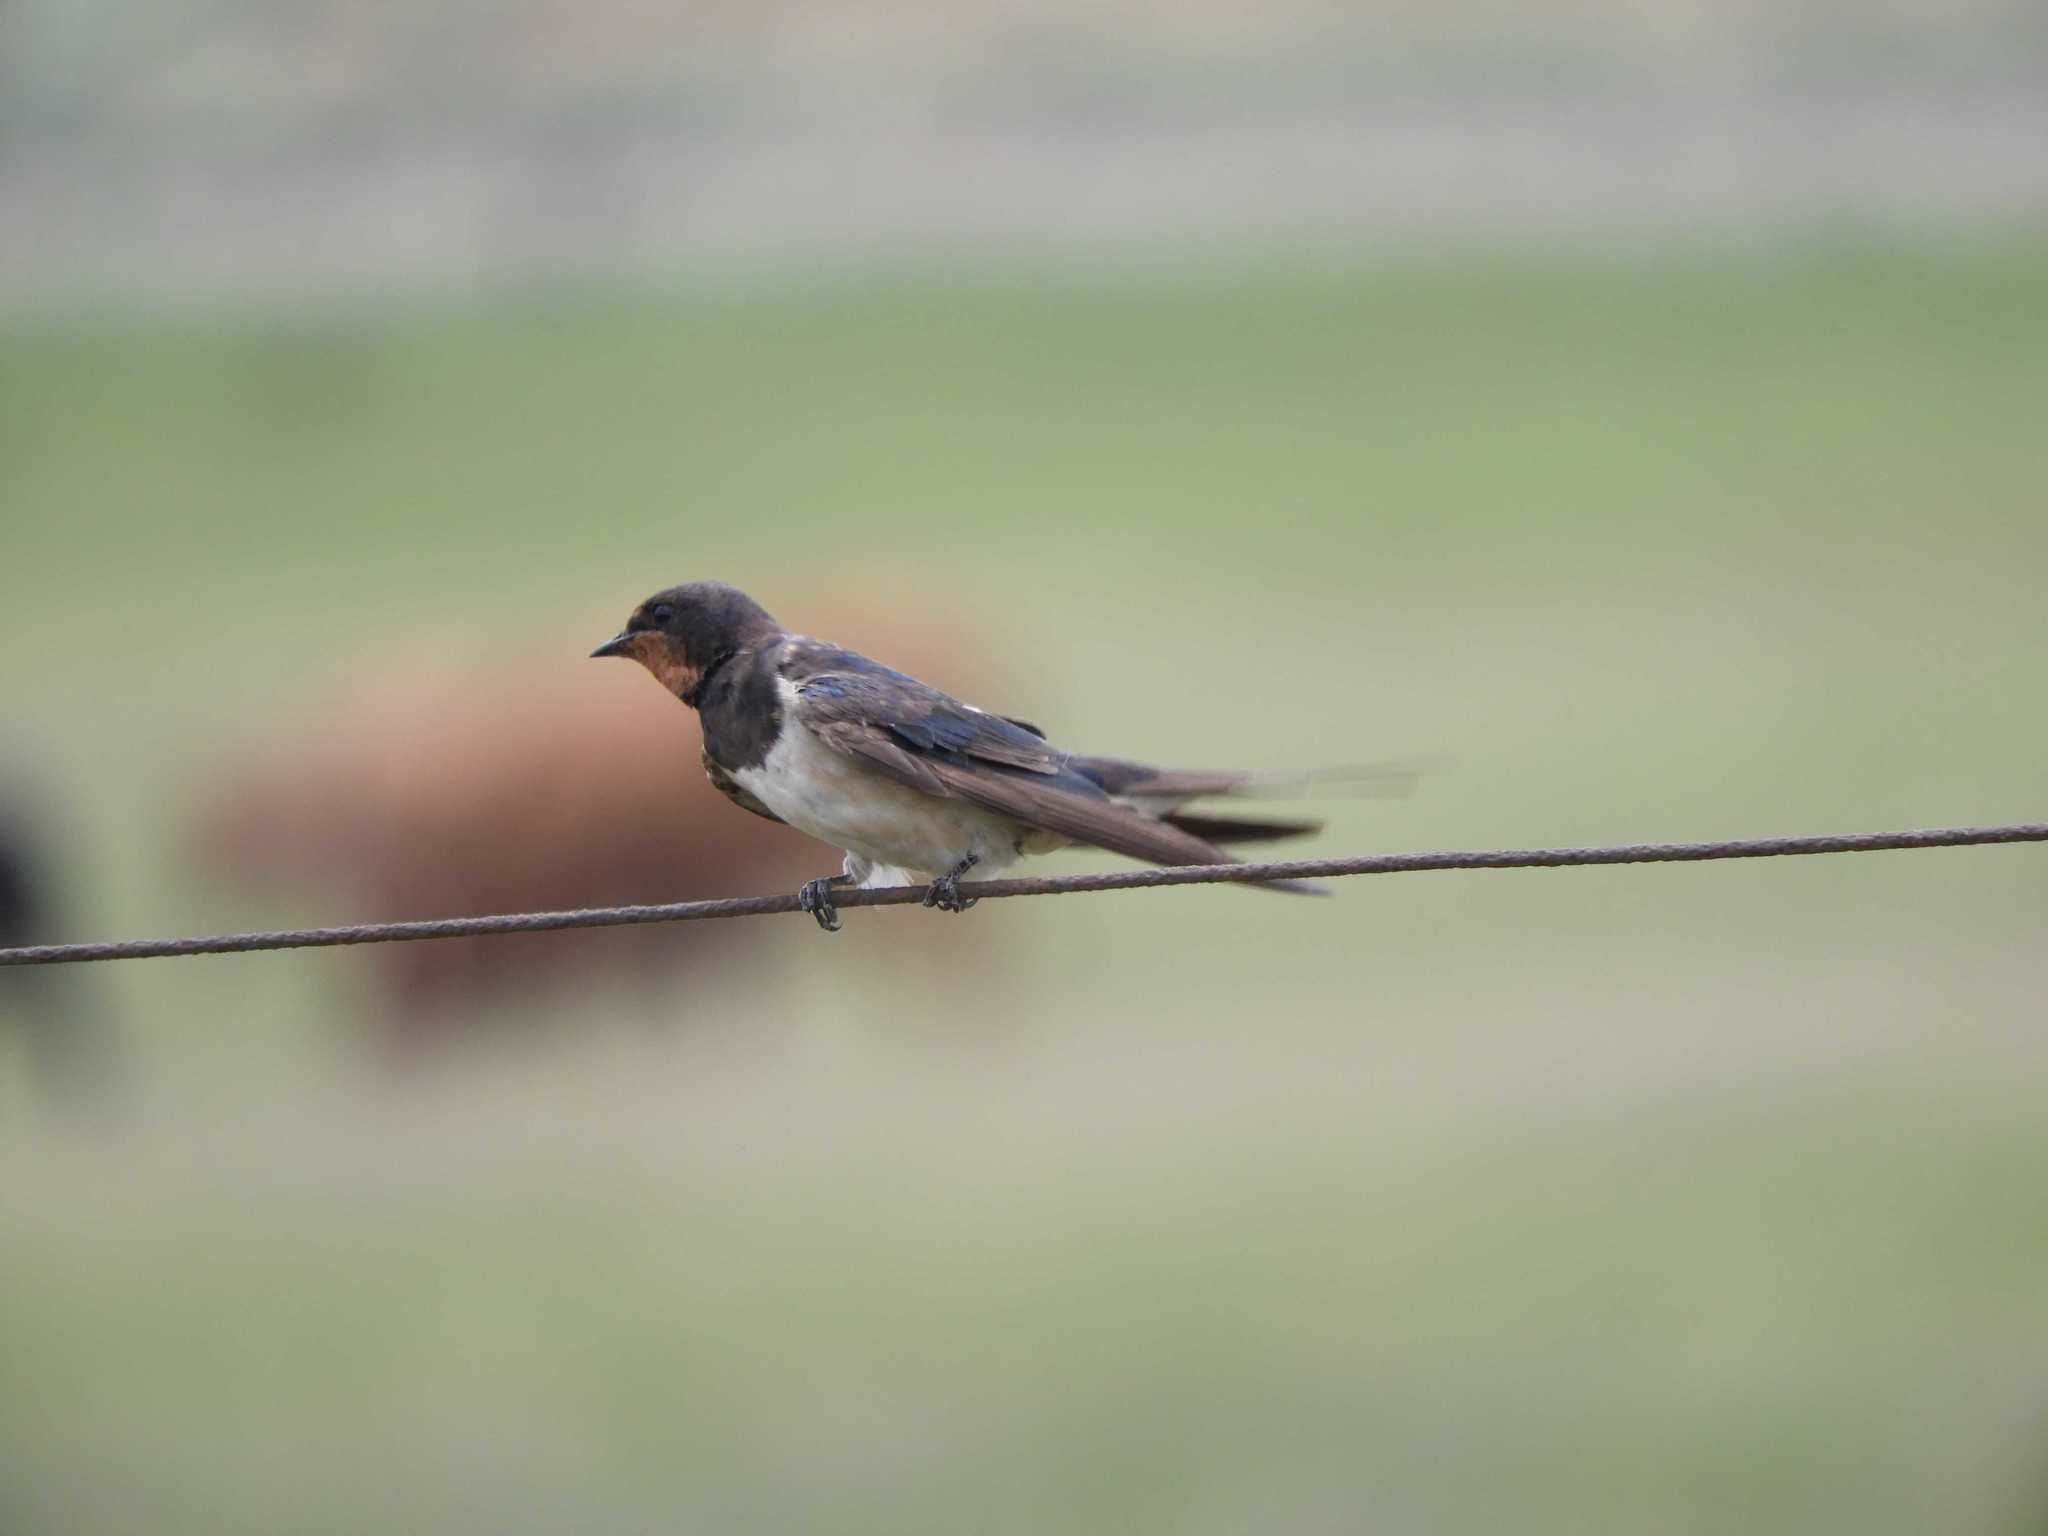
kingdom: Animalia
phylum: Chordata
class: Aves
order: Passeriformes
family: Hirundinidae
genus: Hirundo
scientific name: Hirundo rustica
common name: Barn swallow
